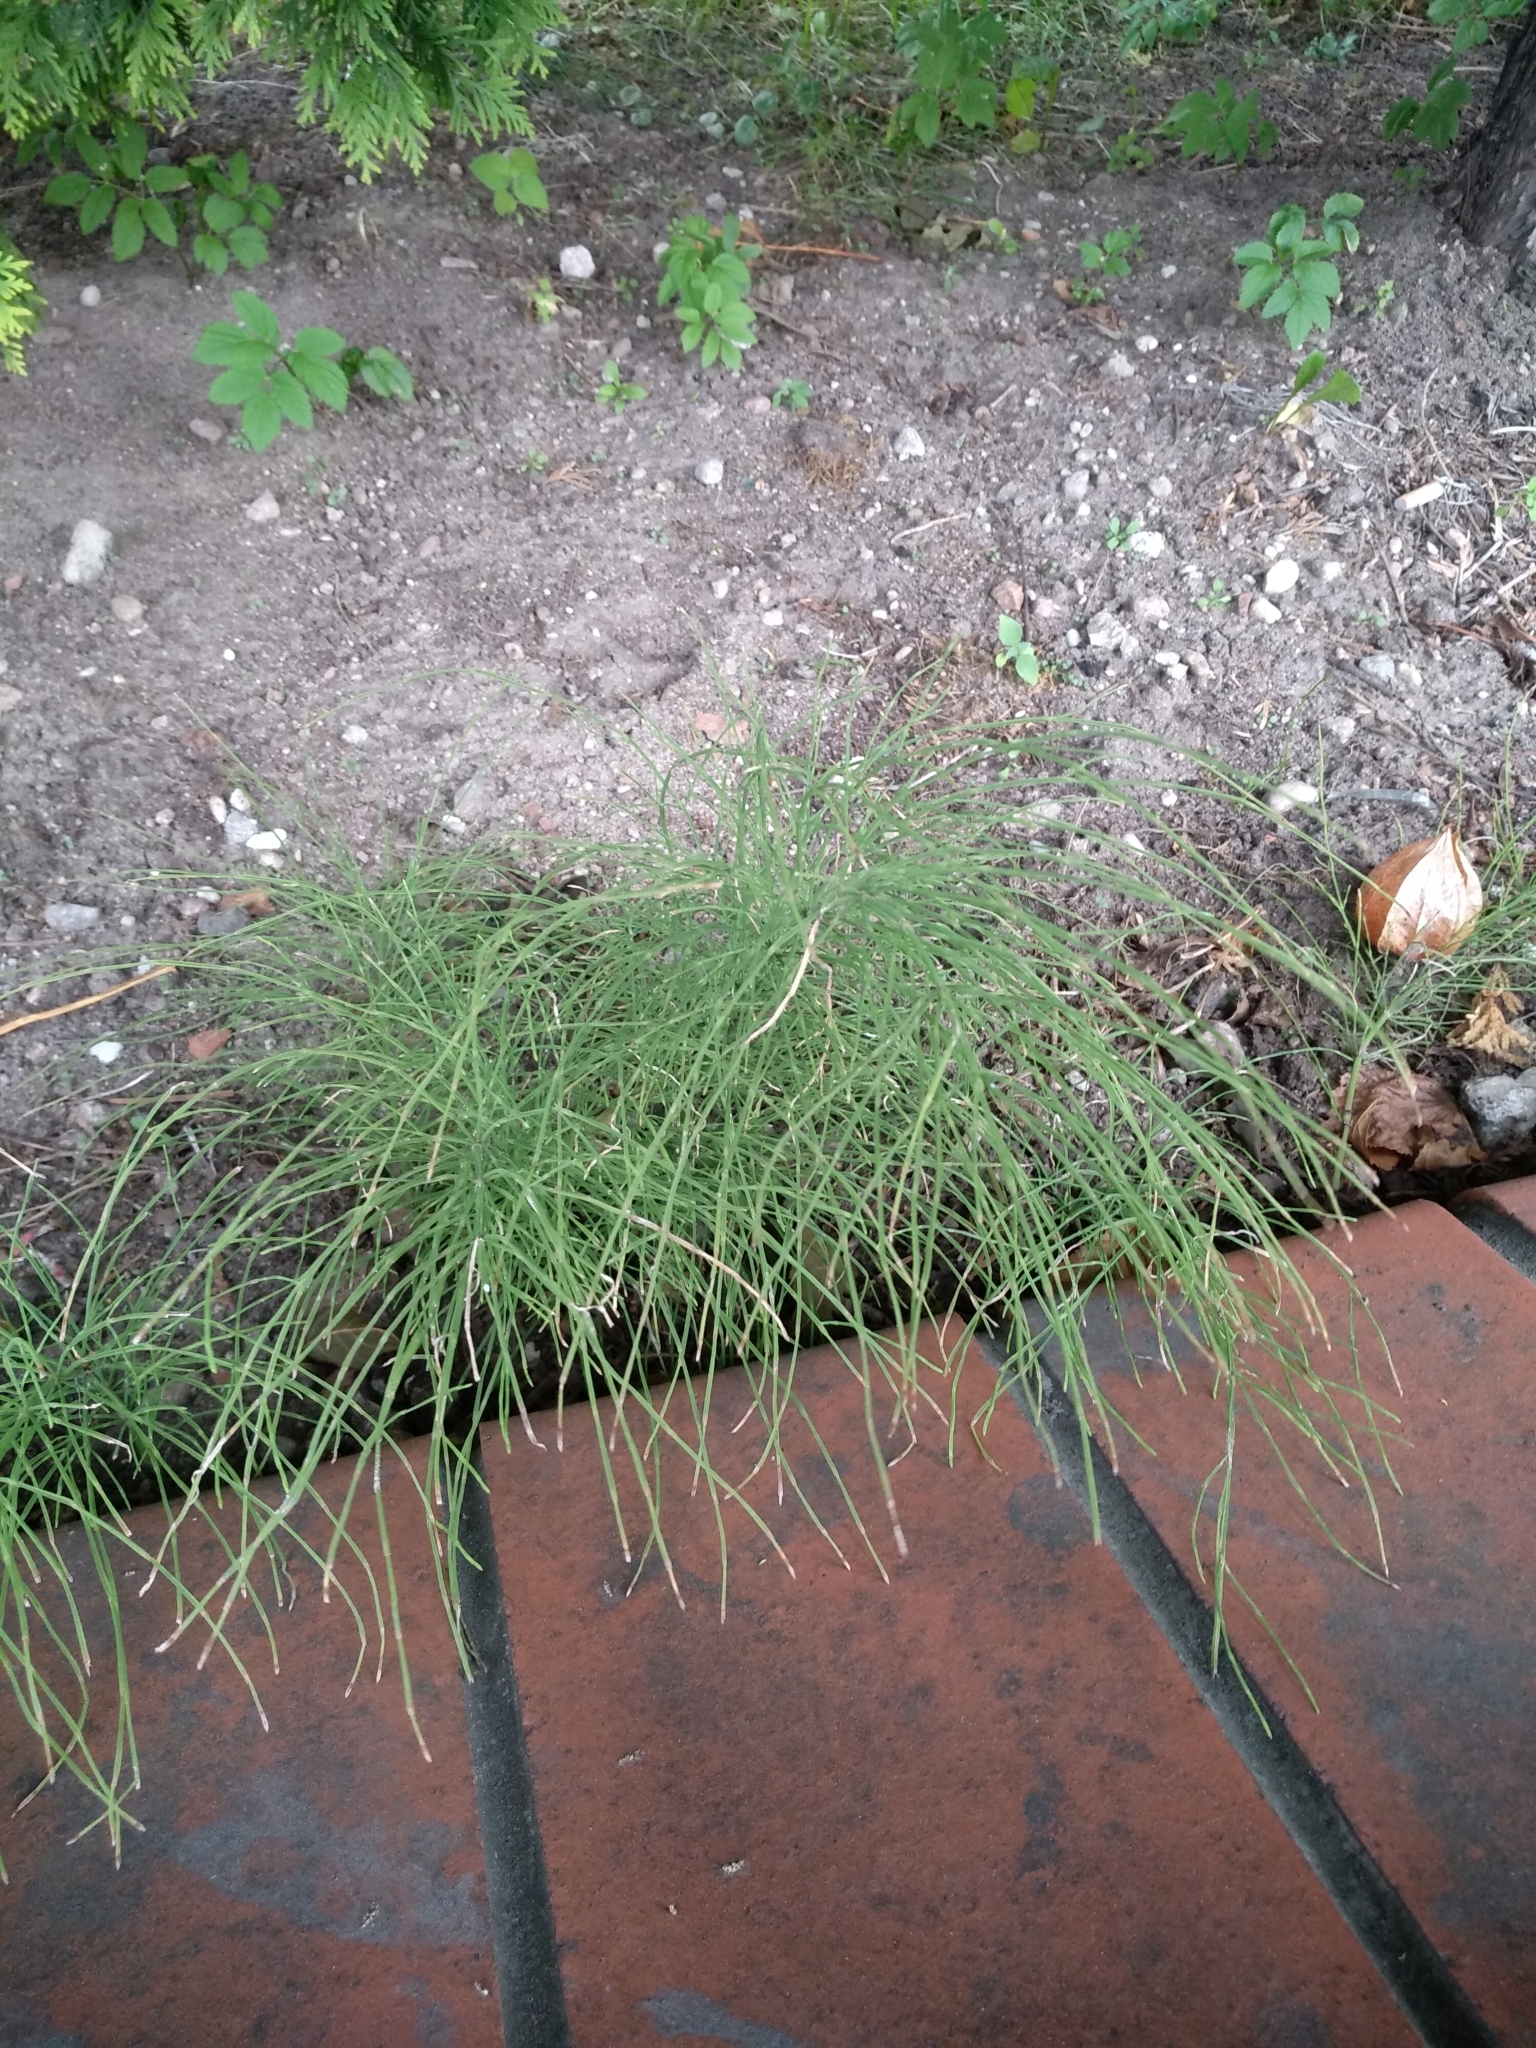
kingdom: Plantae
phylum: Tracheophyta
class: Polypodiopsida
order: Equisetales
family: Equisetaceae
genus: Equisetum
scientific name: Equisetum arvense
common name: Field horsetail
